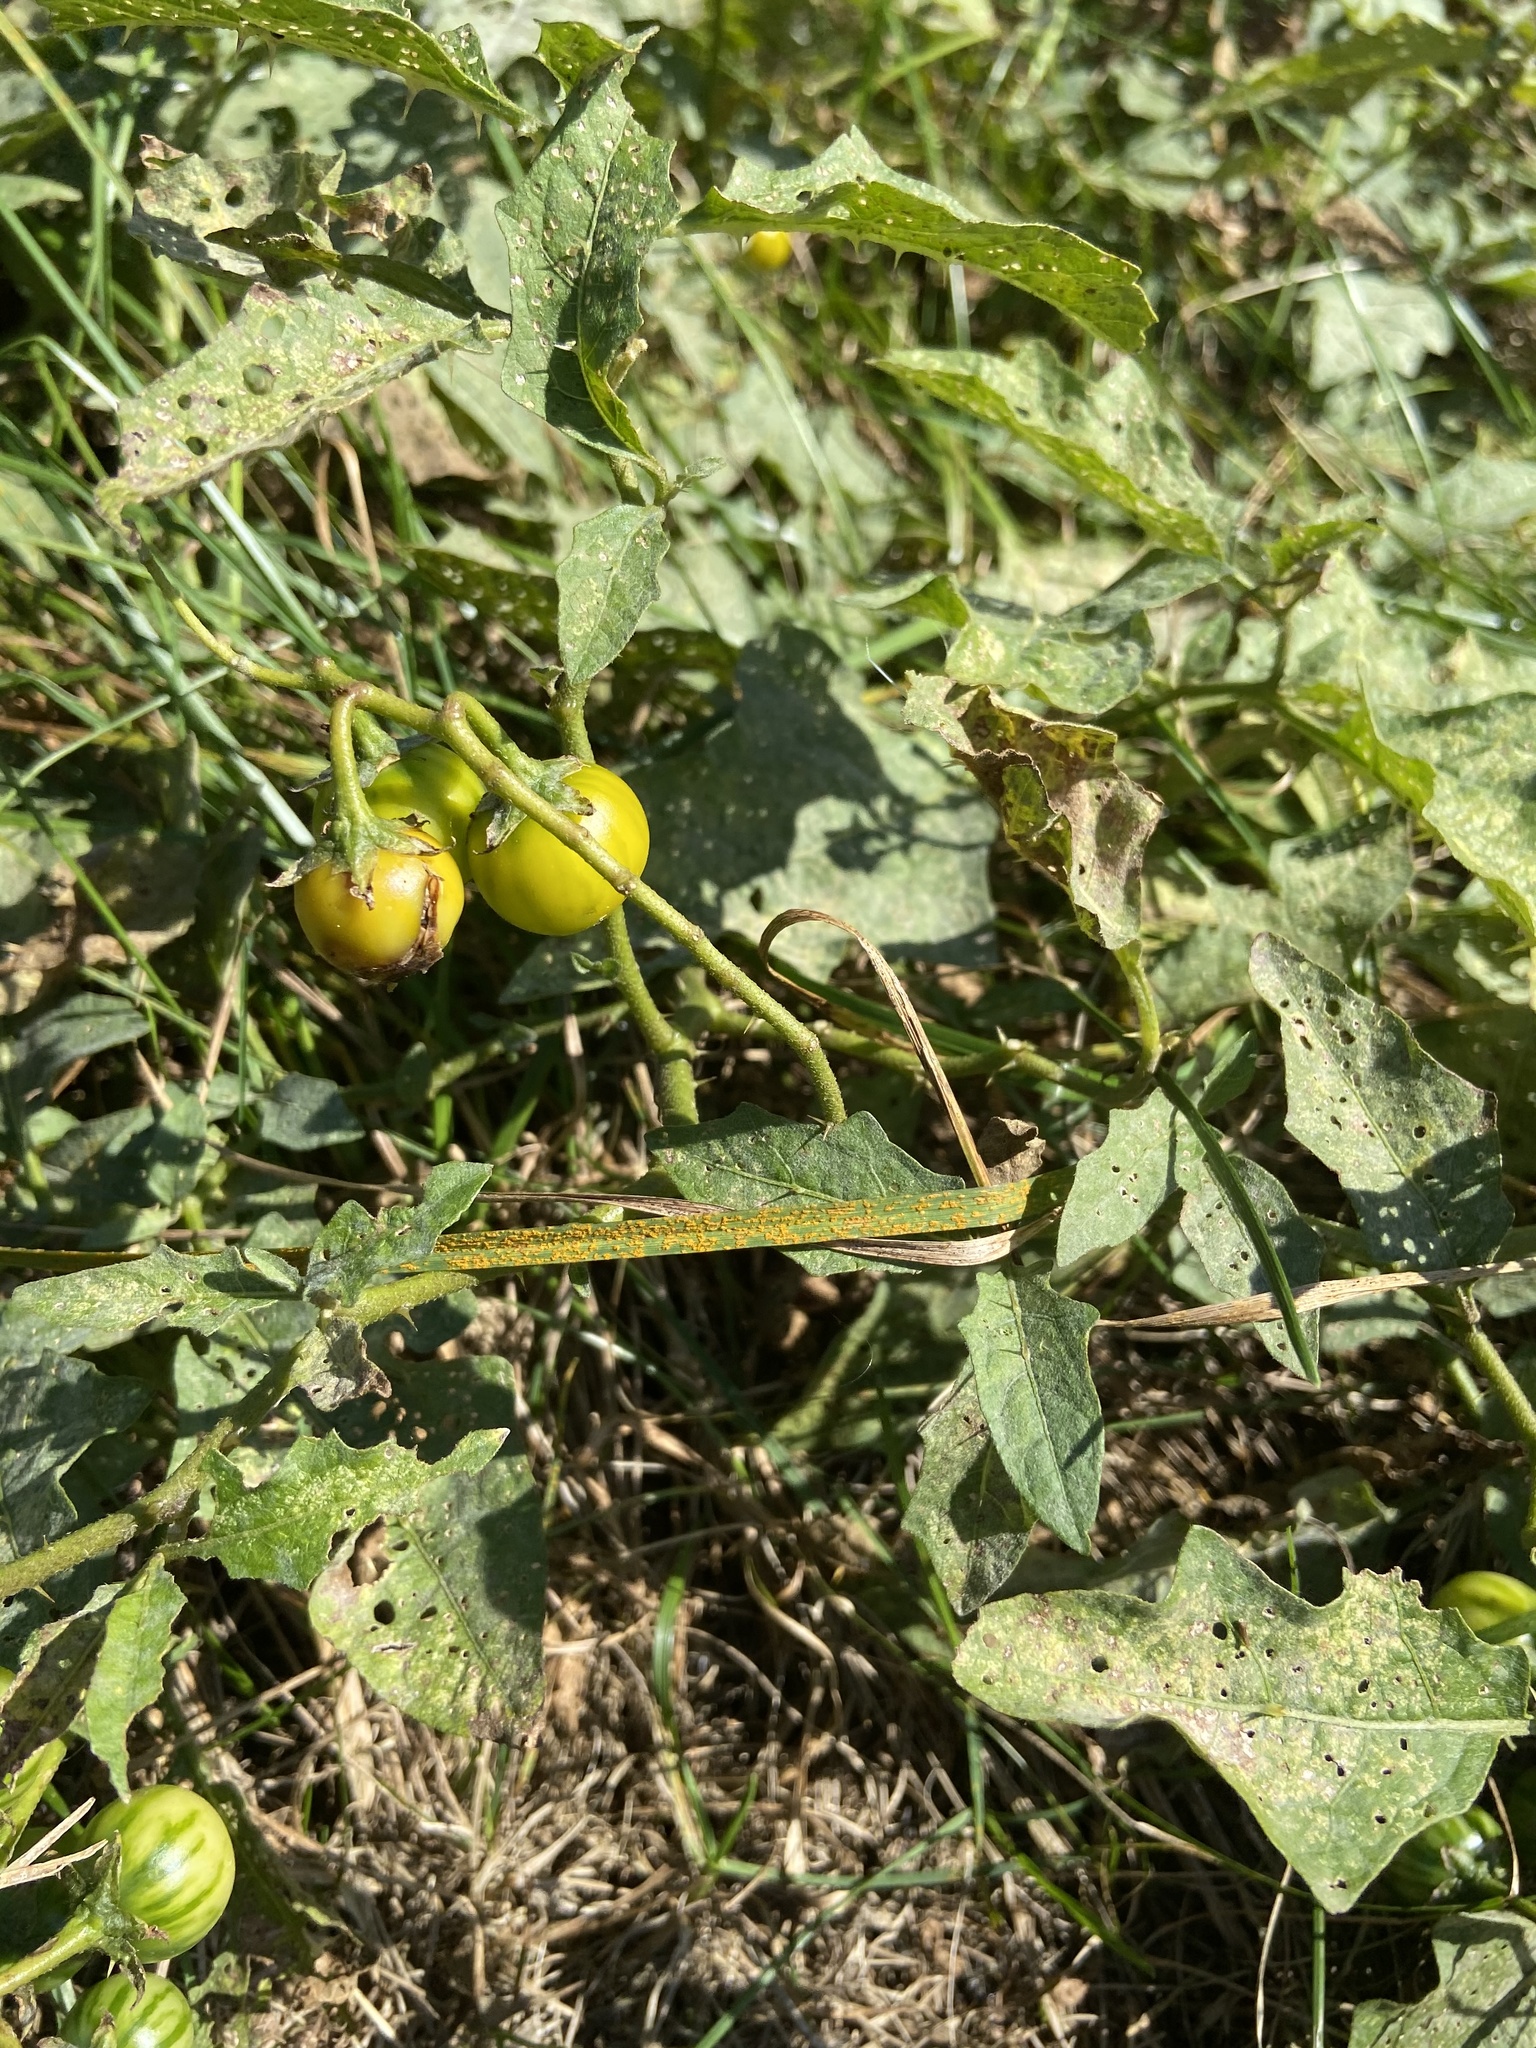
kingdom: Plantae
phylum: Tracheophyta
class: Magnoliopsida
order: Solanales
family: Solanaceae
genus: Solanum
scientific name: Solanum carolinense
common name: Horse-nettle
